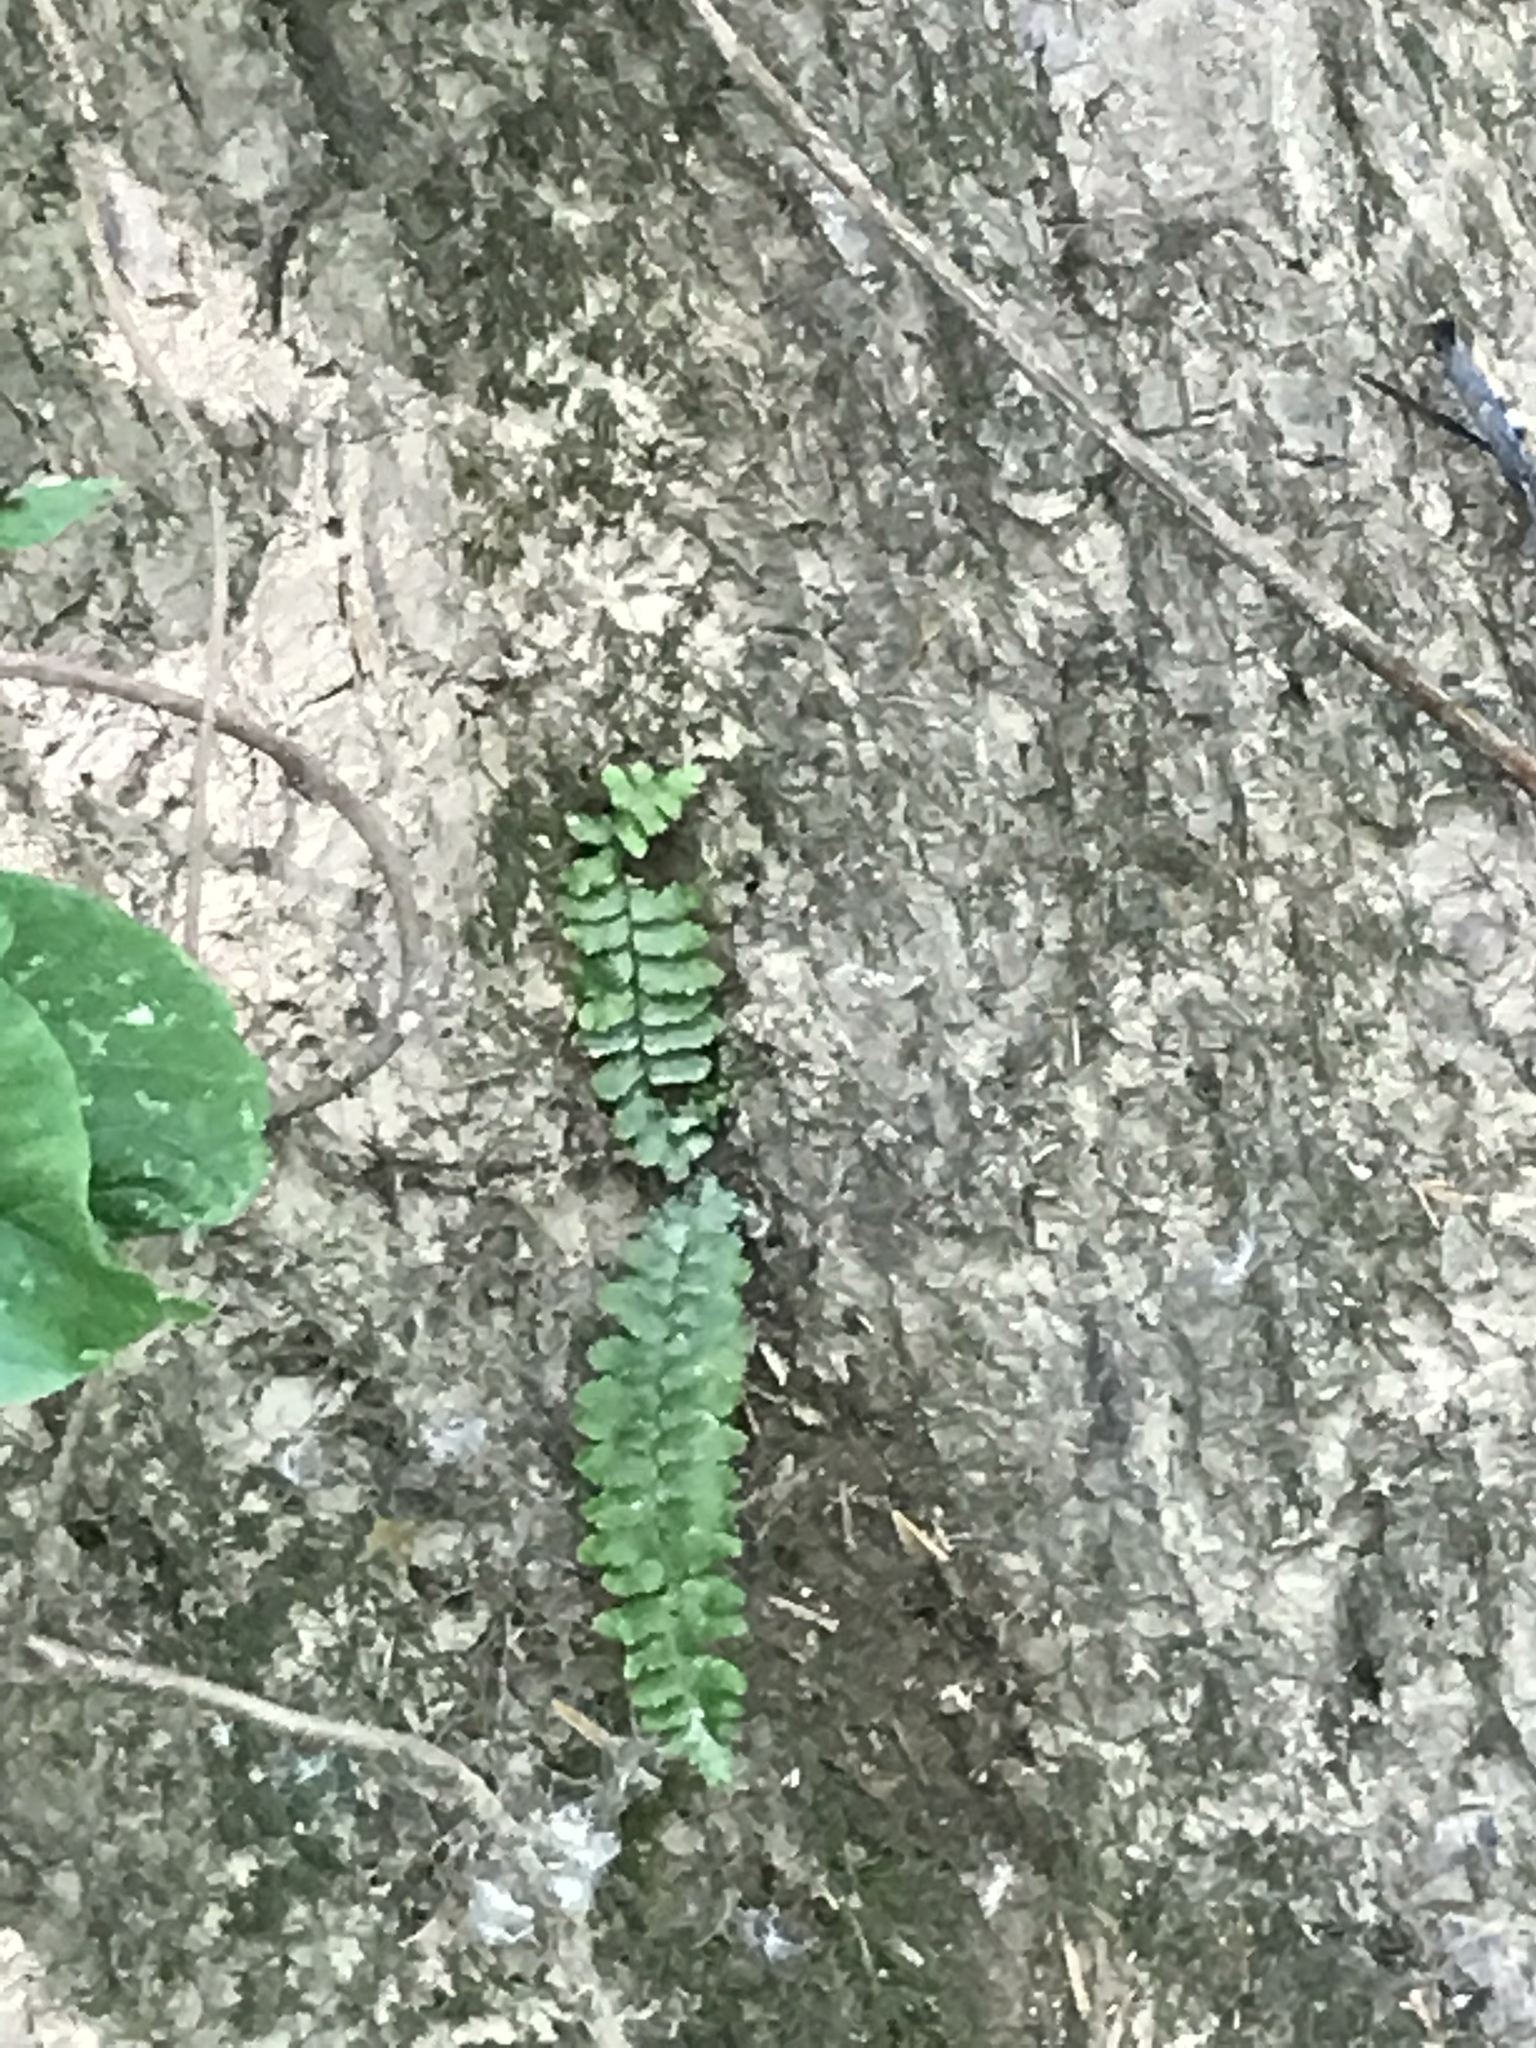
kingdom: Plantae
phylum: Tracheophyta
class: Polypodiopsida
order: Polypodiales
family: Aspleniaceae
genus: Asplenium
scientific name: Asplenium platyneuron
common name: Ebony spleenwort
